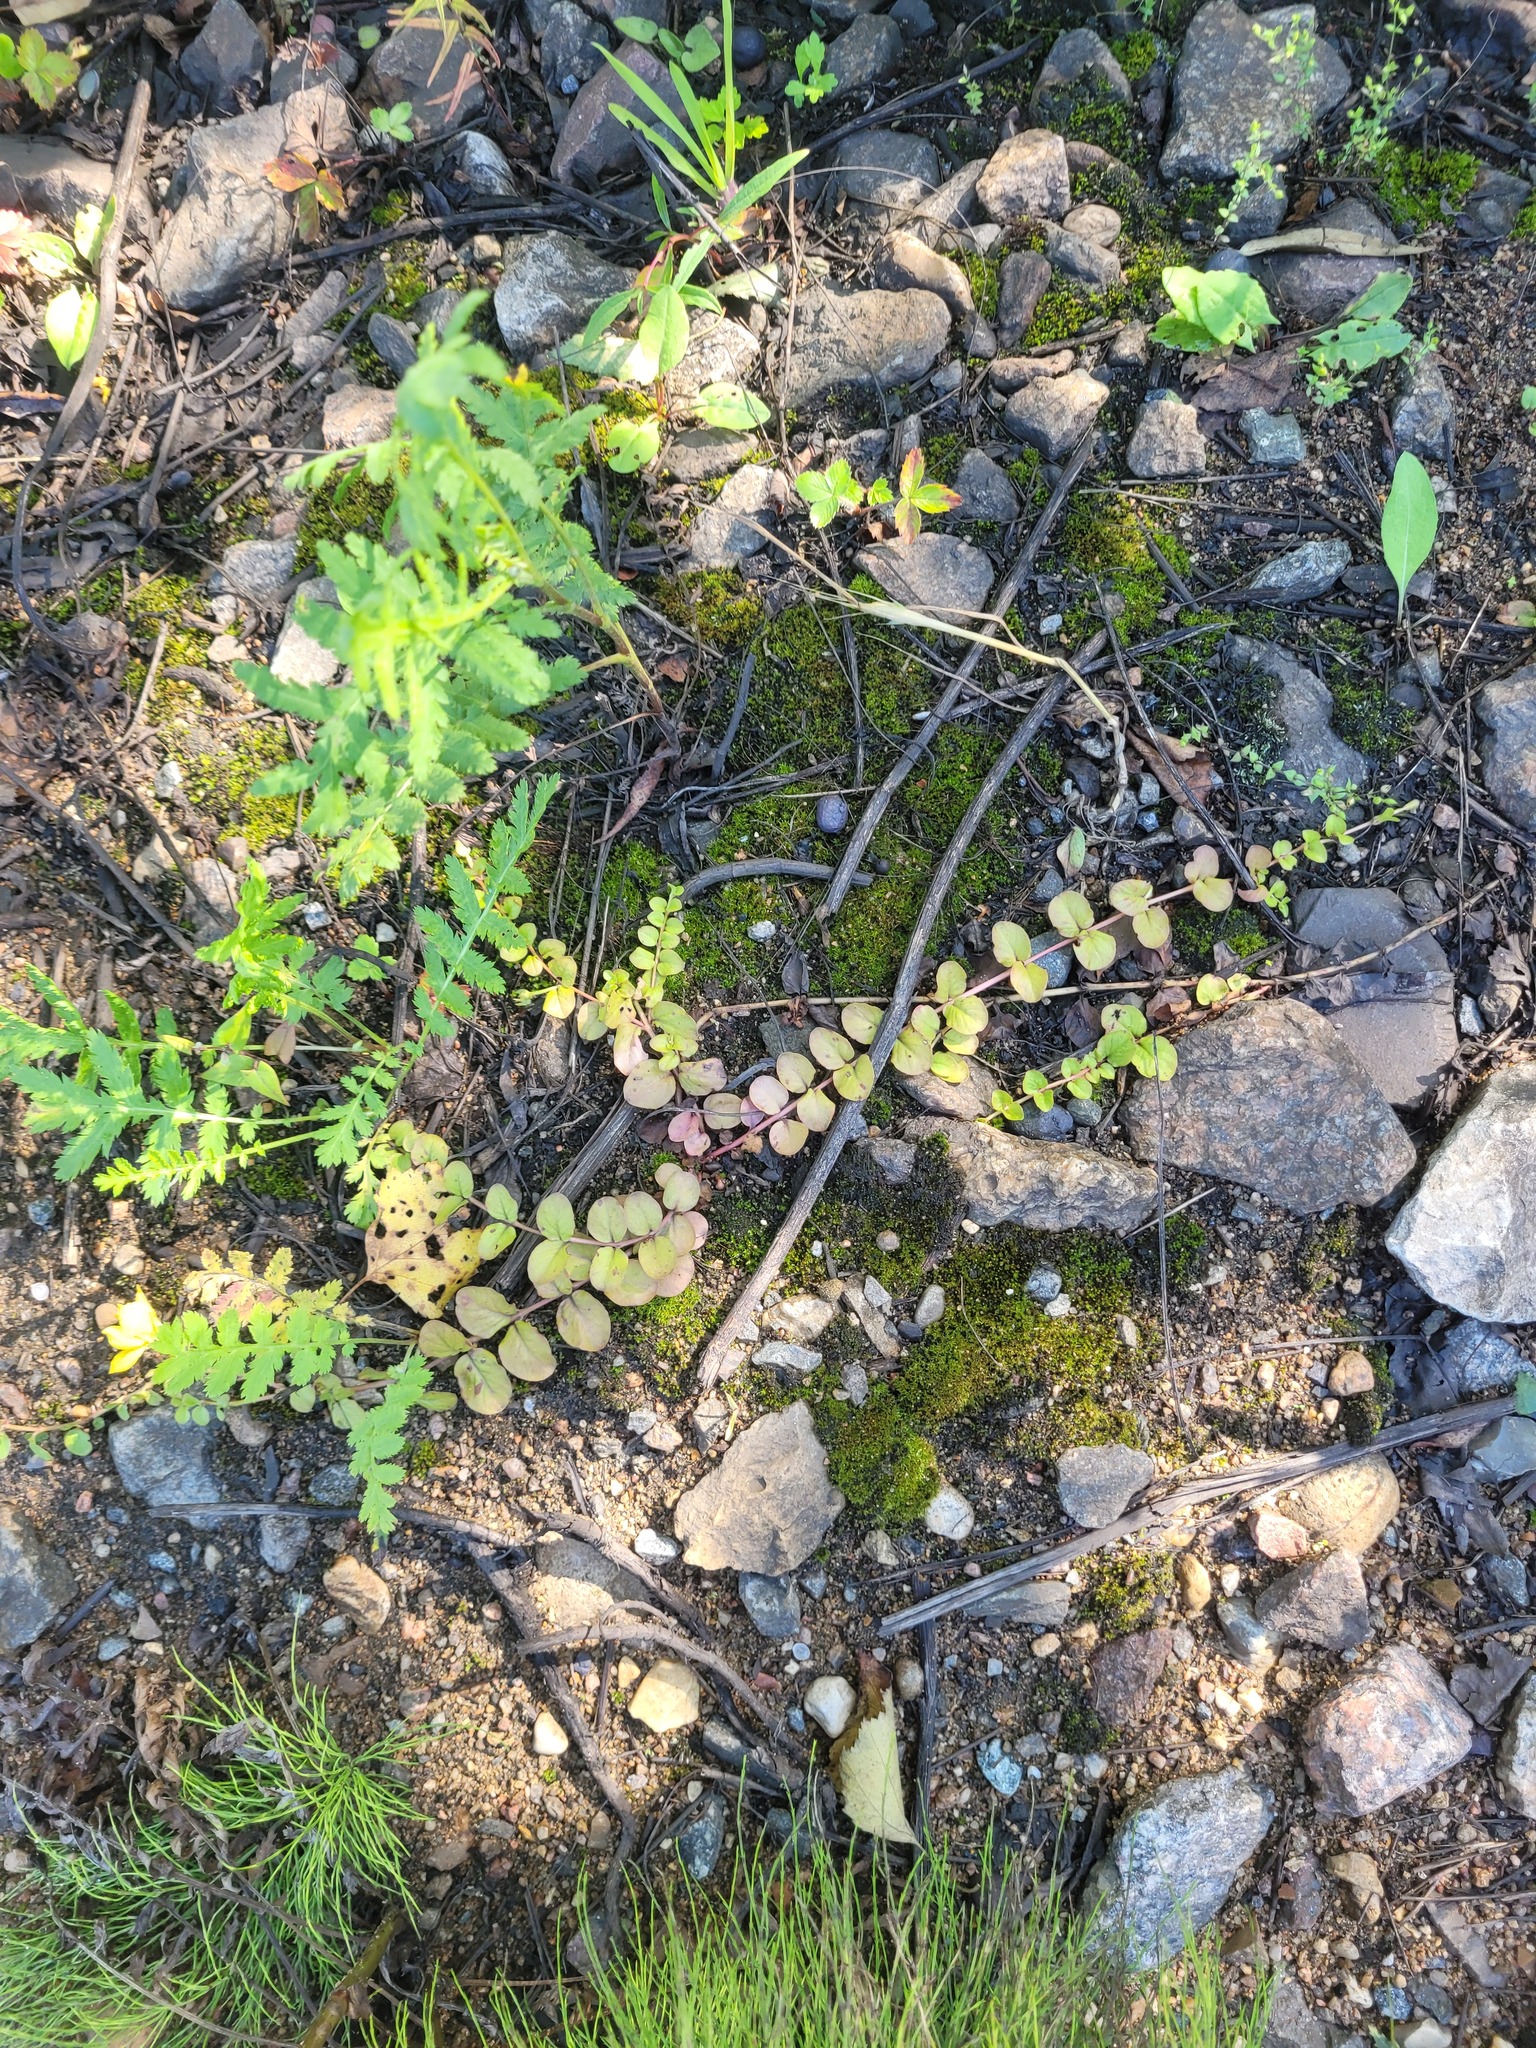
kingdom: Plantae
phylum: Tracheophyta
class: Magnoliopsida
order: Ericales
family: Primulaceae
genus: Lysimachia
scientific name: Lysimachia nummularia
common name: Moneywort
